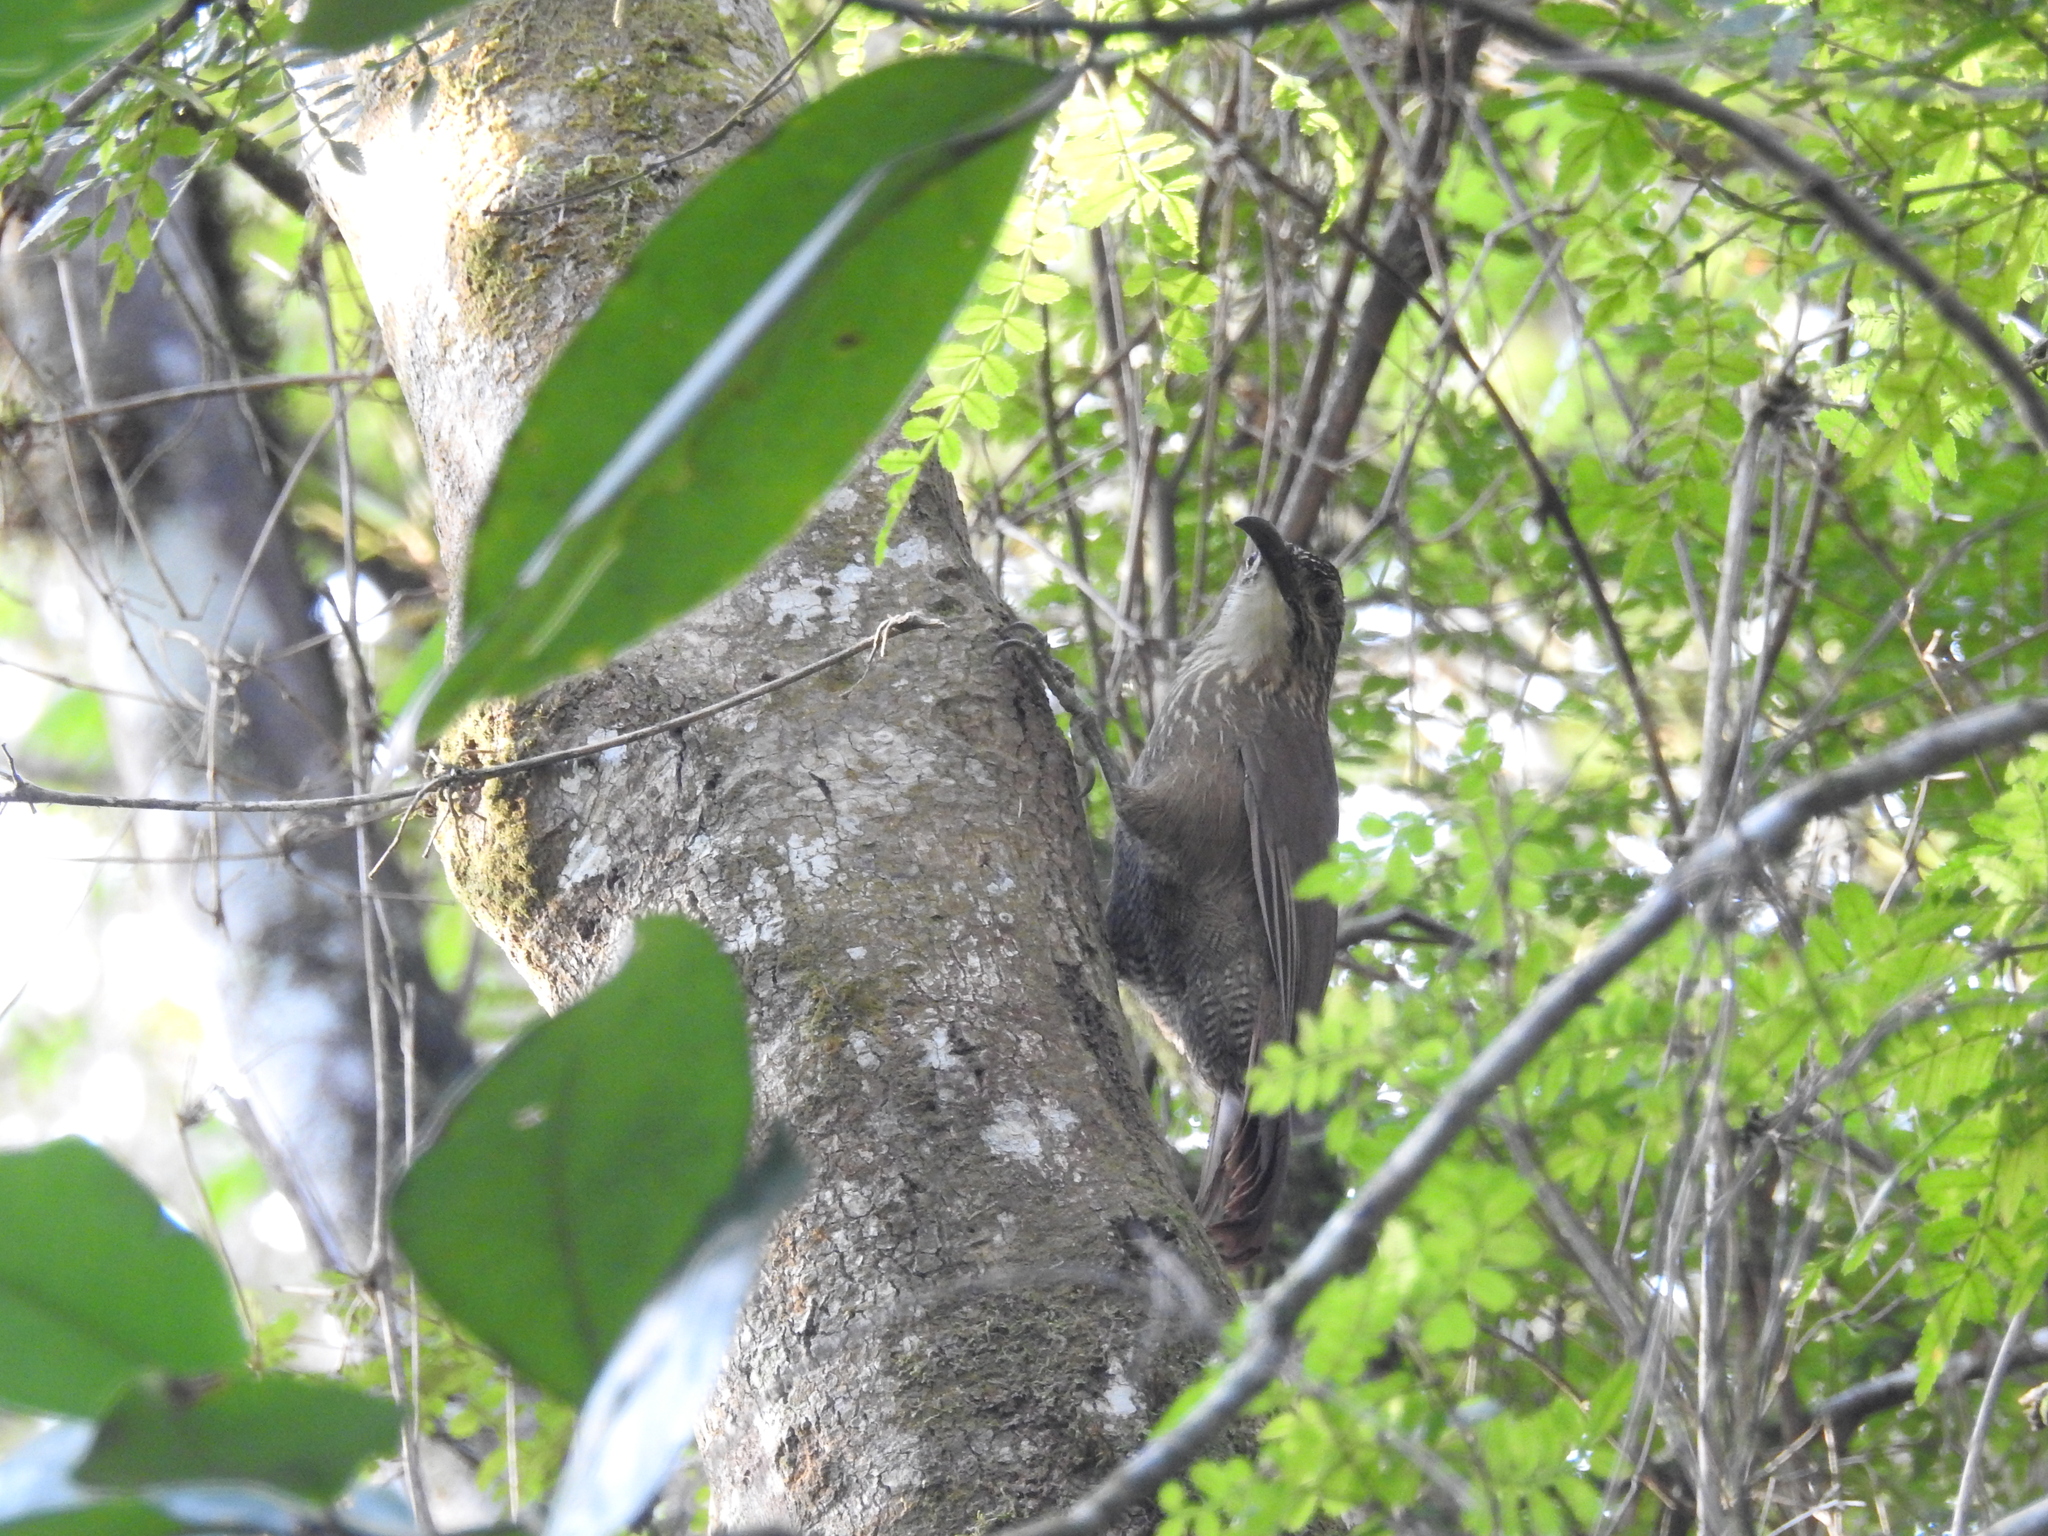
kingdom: Animalia
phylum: Chordata
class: Aves
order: Passeriformes
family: Furnariidae
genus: Xiphocolaptes
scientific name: Xiphocolaptes albicollis
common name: White-throated woodcreeper
